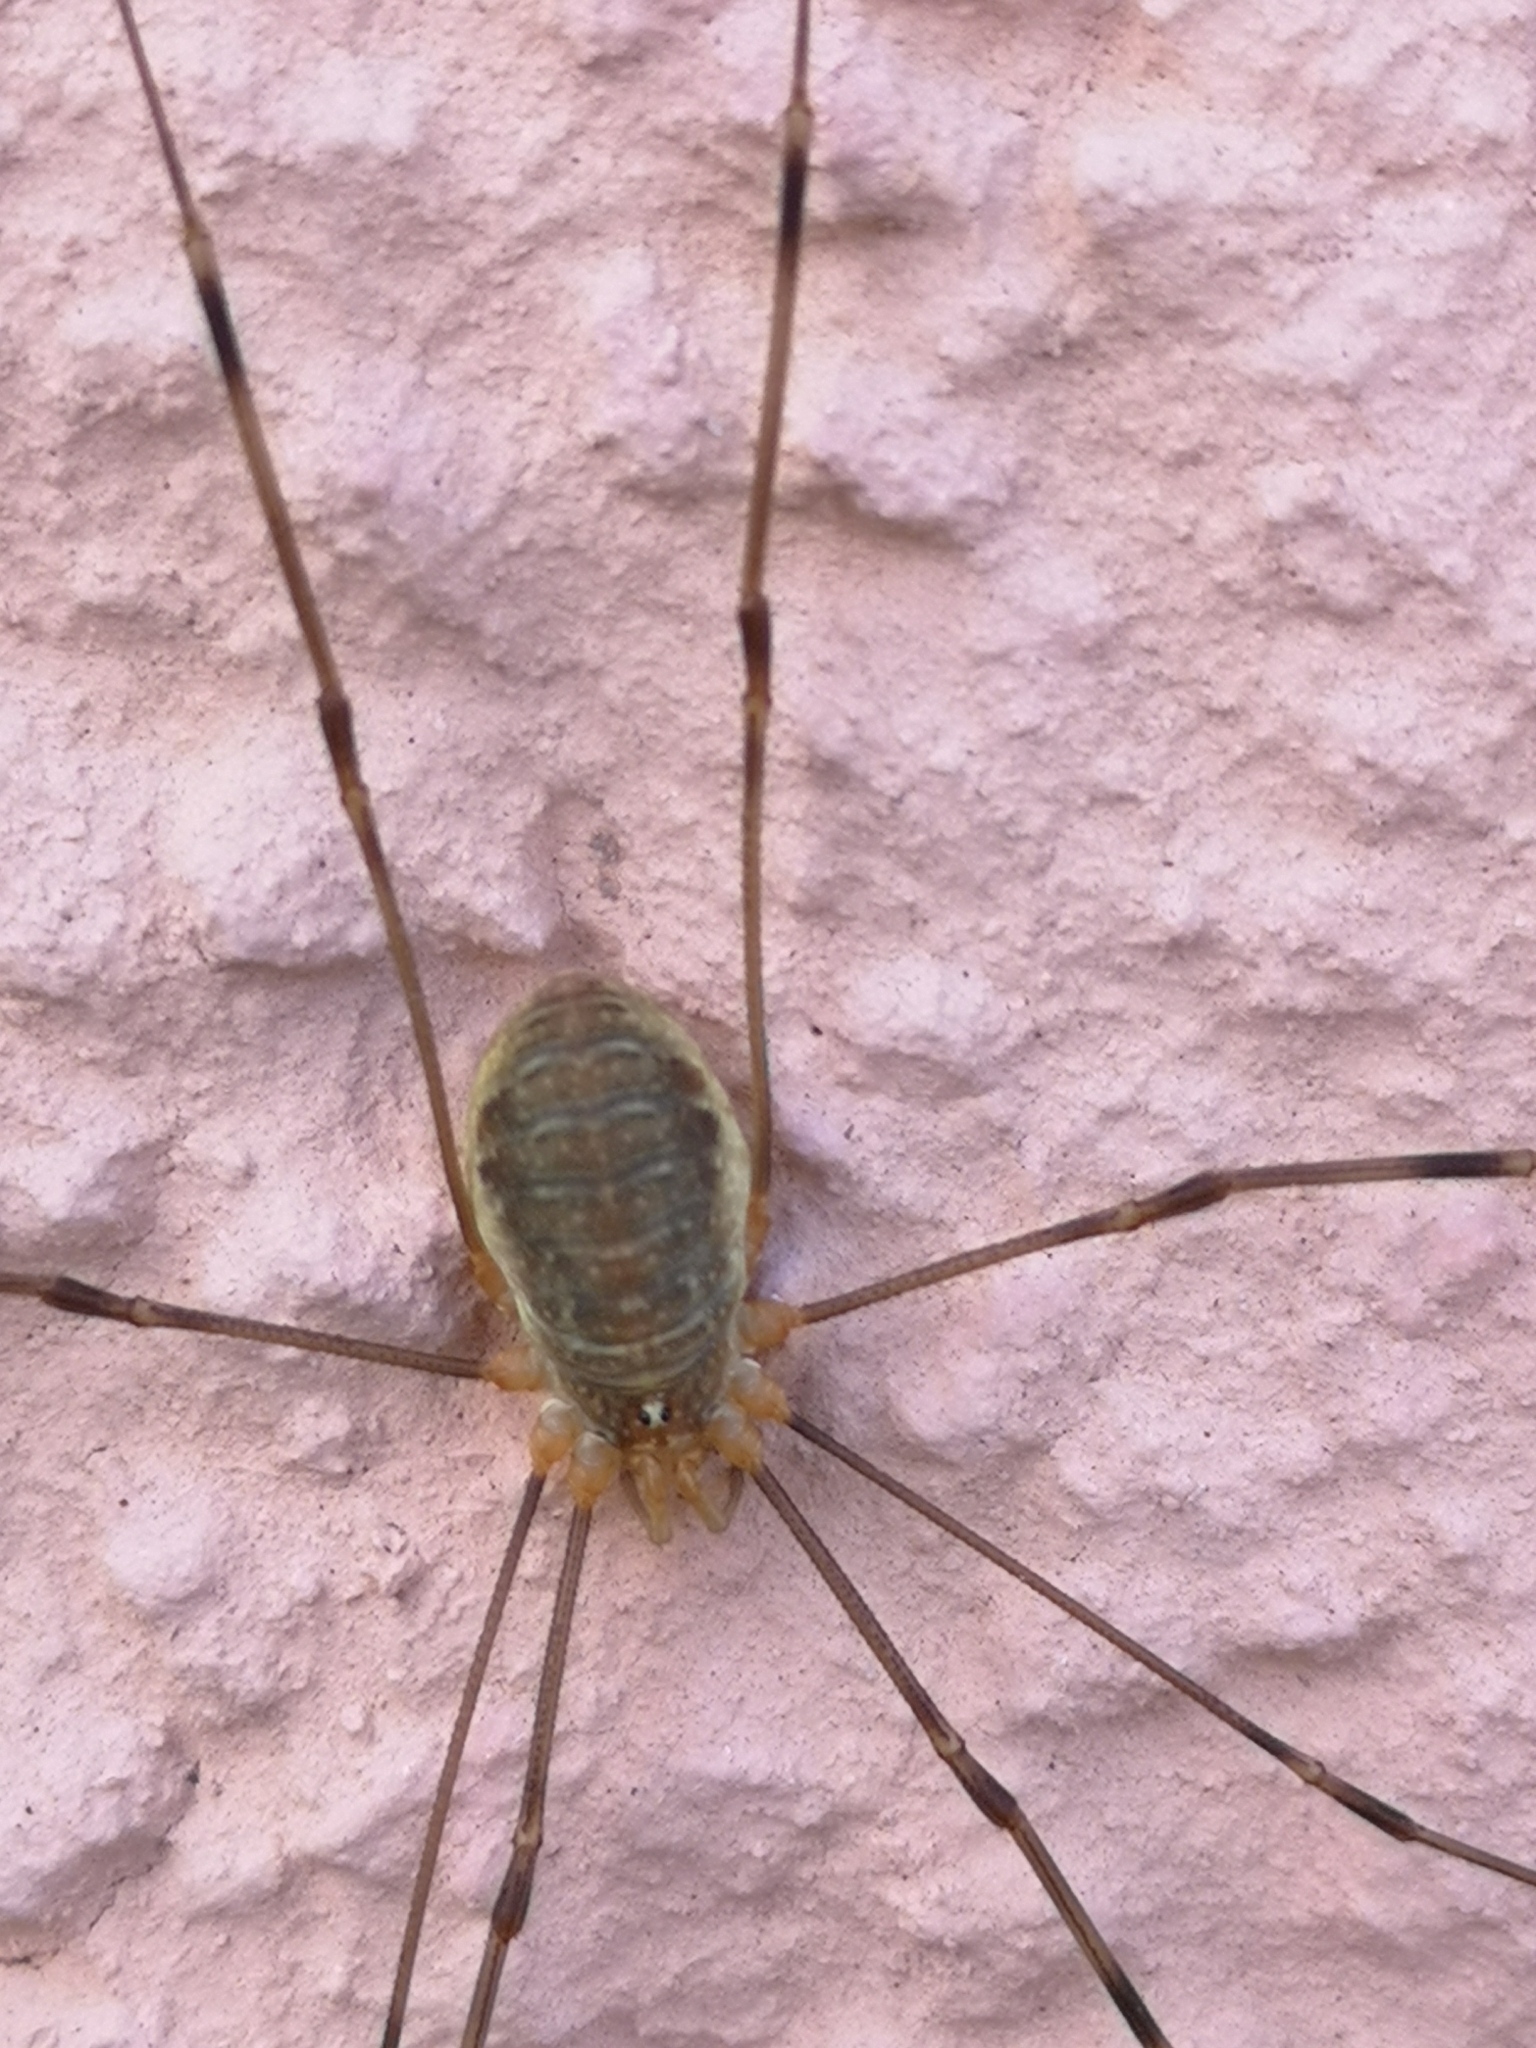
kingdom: Animalia
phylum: Arthropoda
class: Arachnida
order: Opiliones
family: Phalangiidae
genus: Opilio
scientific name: Opilio canestrinii
